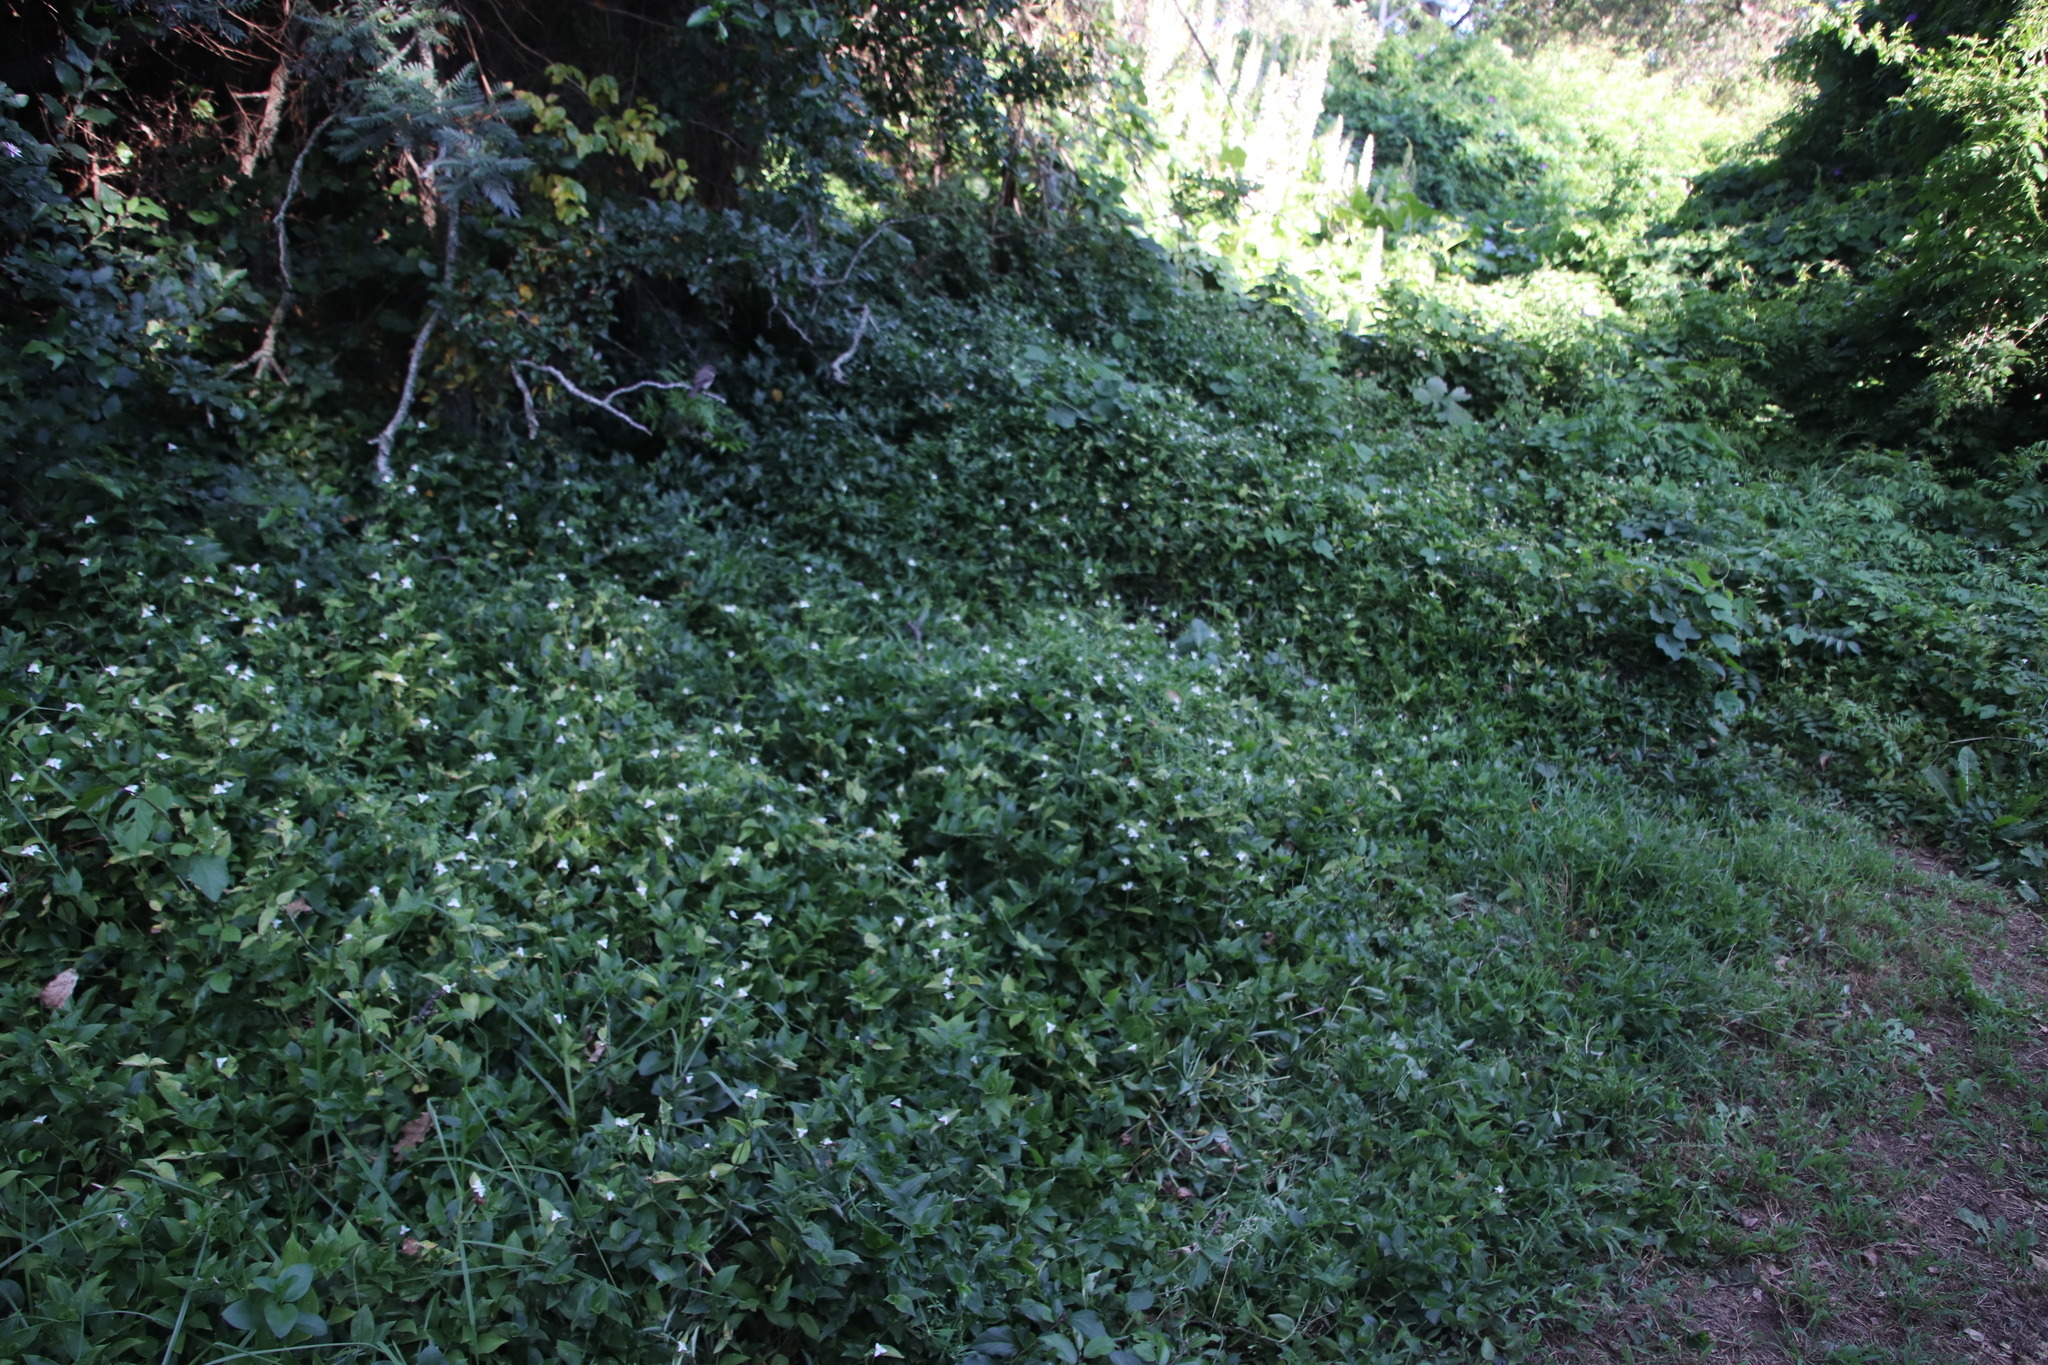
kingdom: Plantae
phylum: Tracheophyta
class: Liliopsida
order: Commelinales
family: Commelinaceae
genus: Tradescantia
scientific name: Tradescantia fluminensis
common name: Wandering-jew
